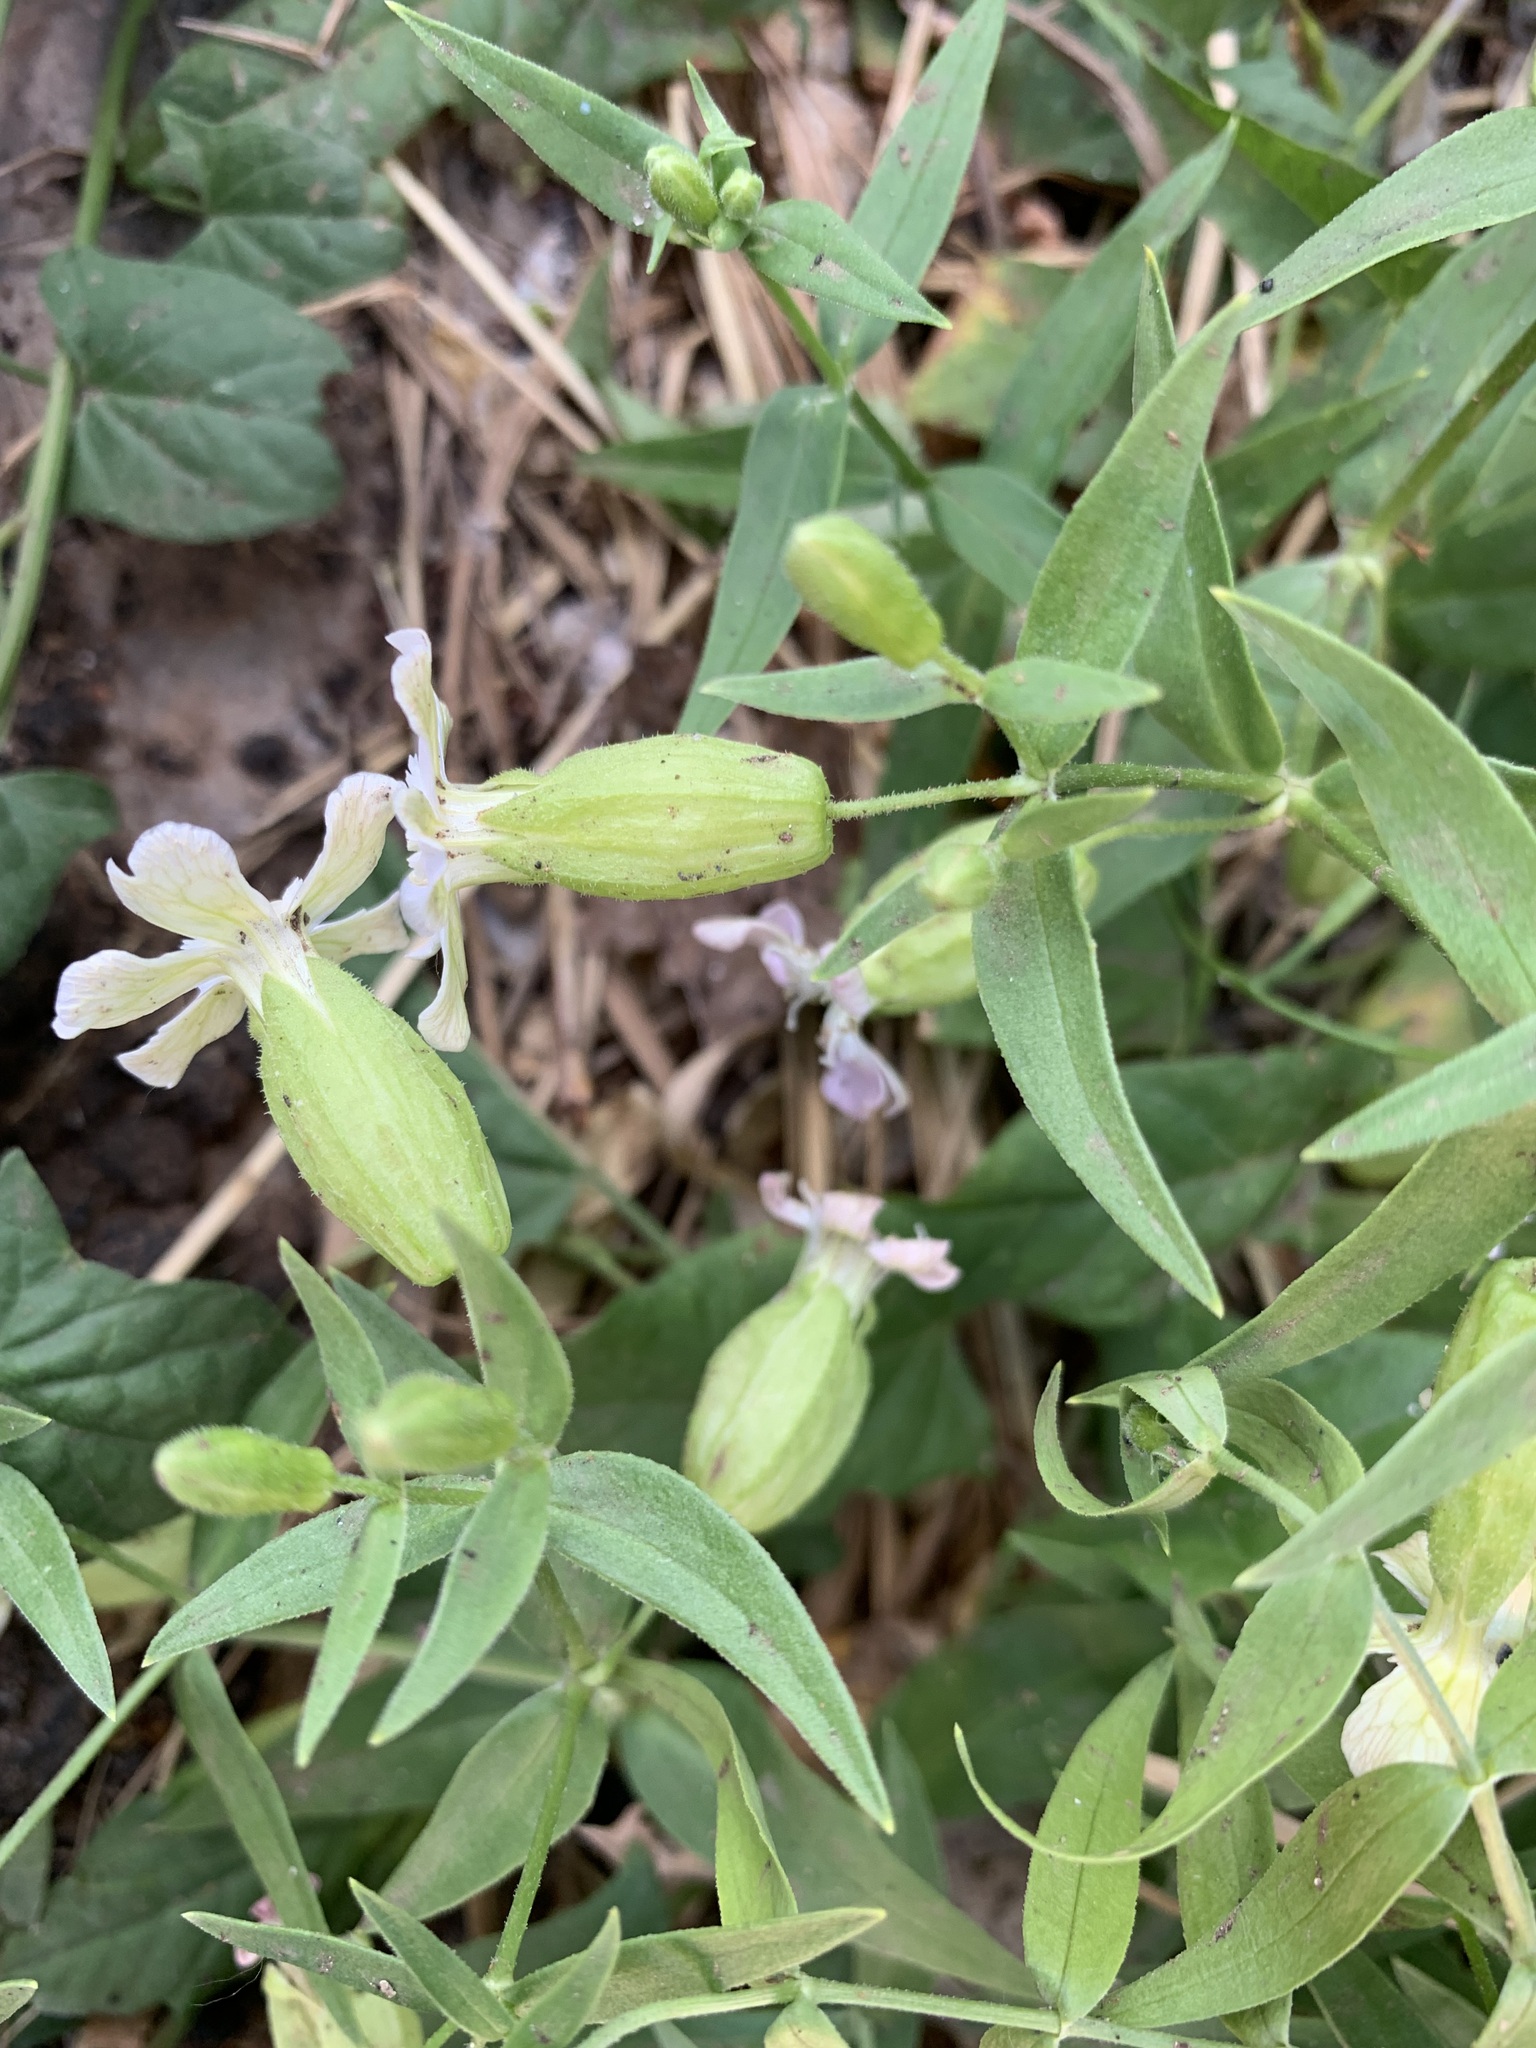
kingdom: Plantae
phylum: Tracheophyta
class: Magnoliopsida
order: Caryophyllales
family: Caryophyllaceae
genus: Silene
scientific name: Silene procumbens
